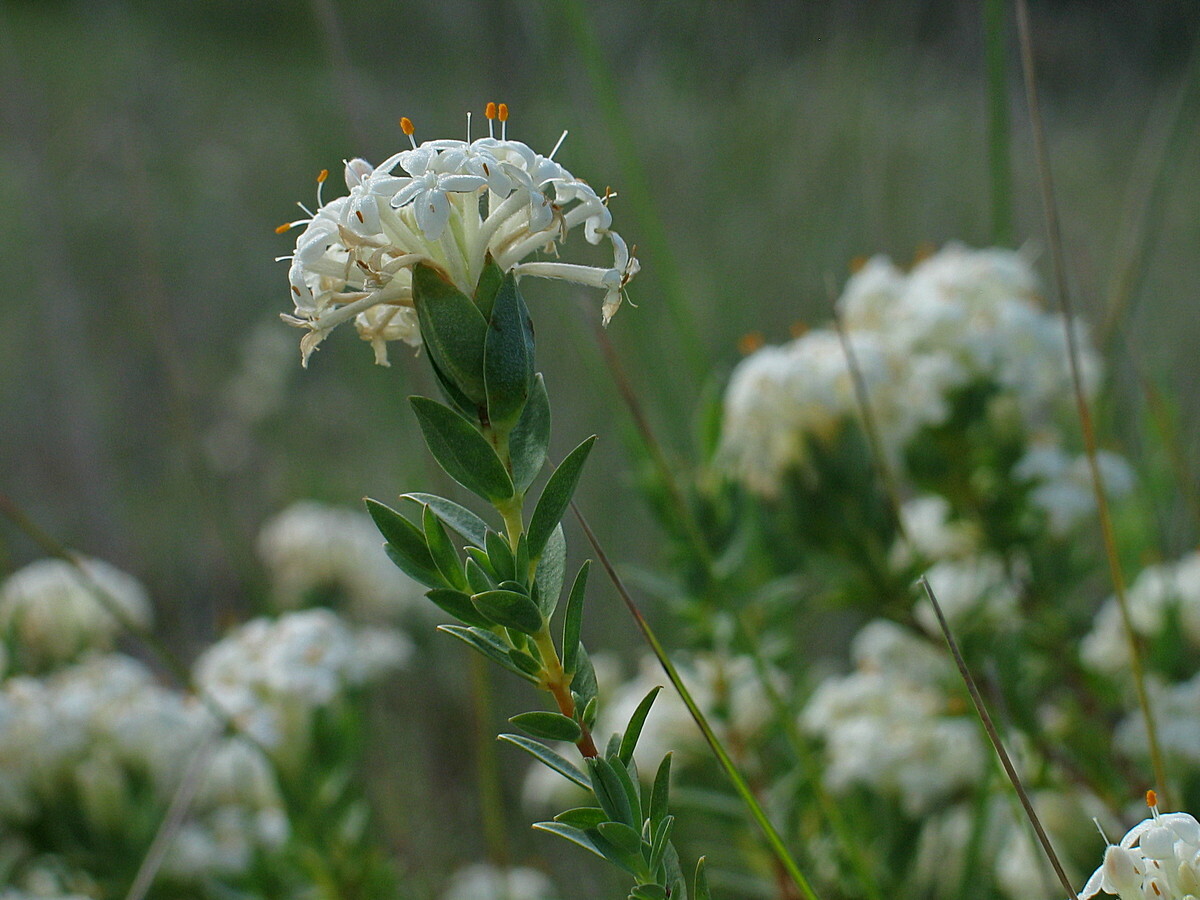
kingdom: Plantae
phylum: Tracheophyta
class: Magnoliopsida
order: Malvales
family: Thymelaeaceae
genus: Pimelea
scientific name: Pimelea glauca
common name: Smooth riceflower
